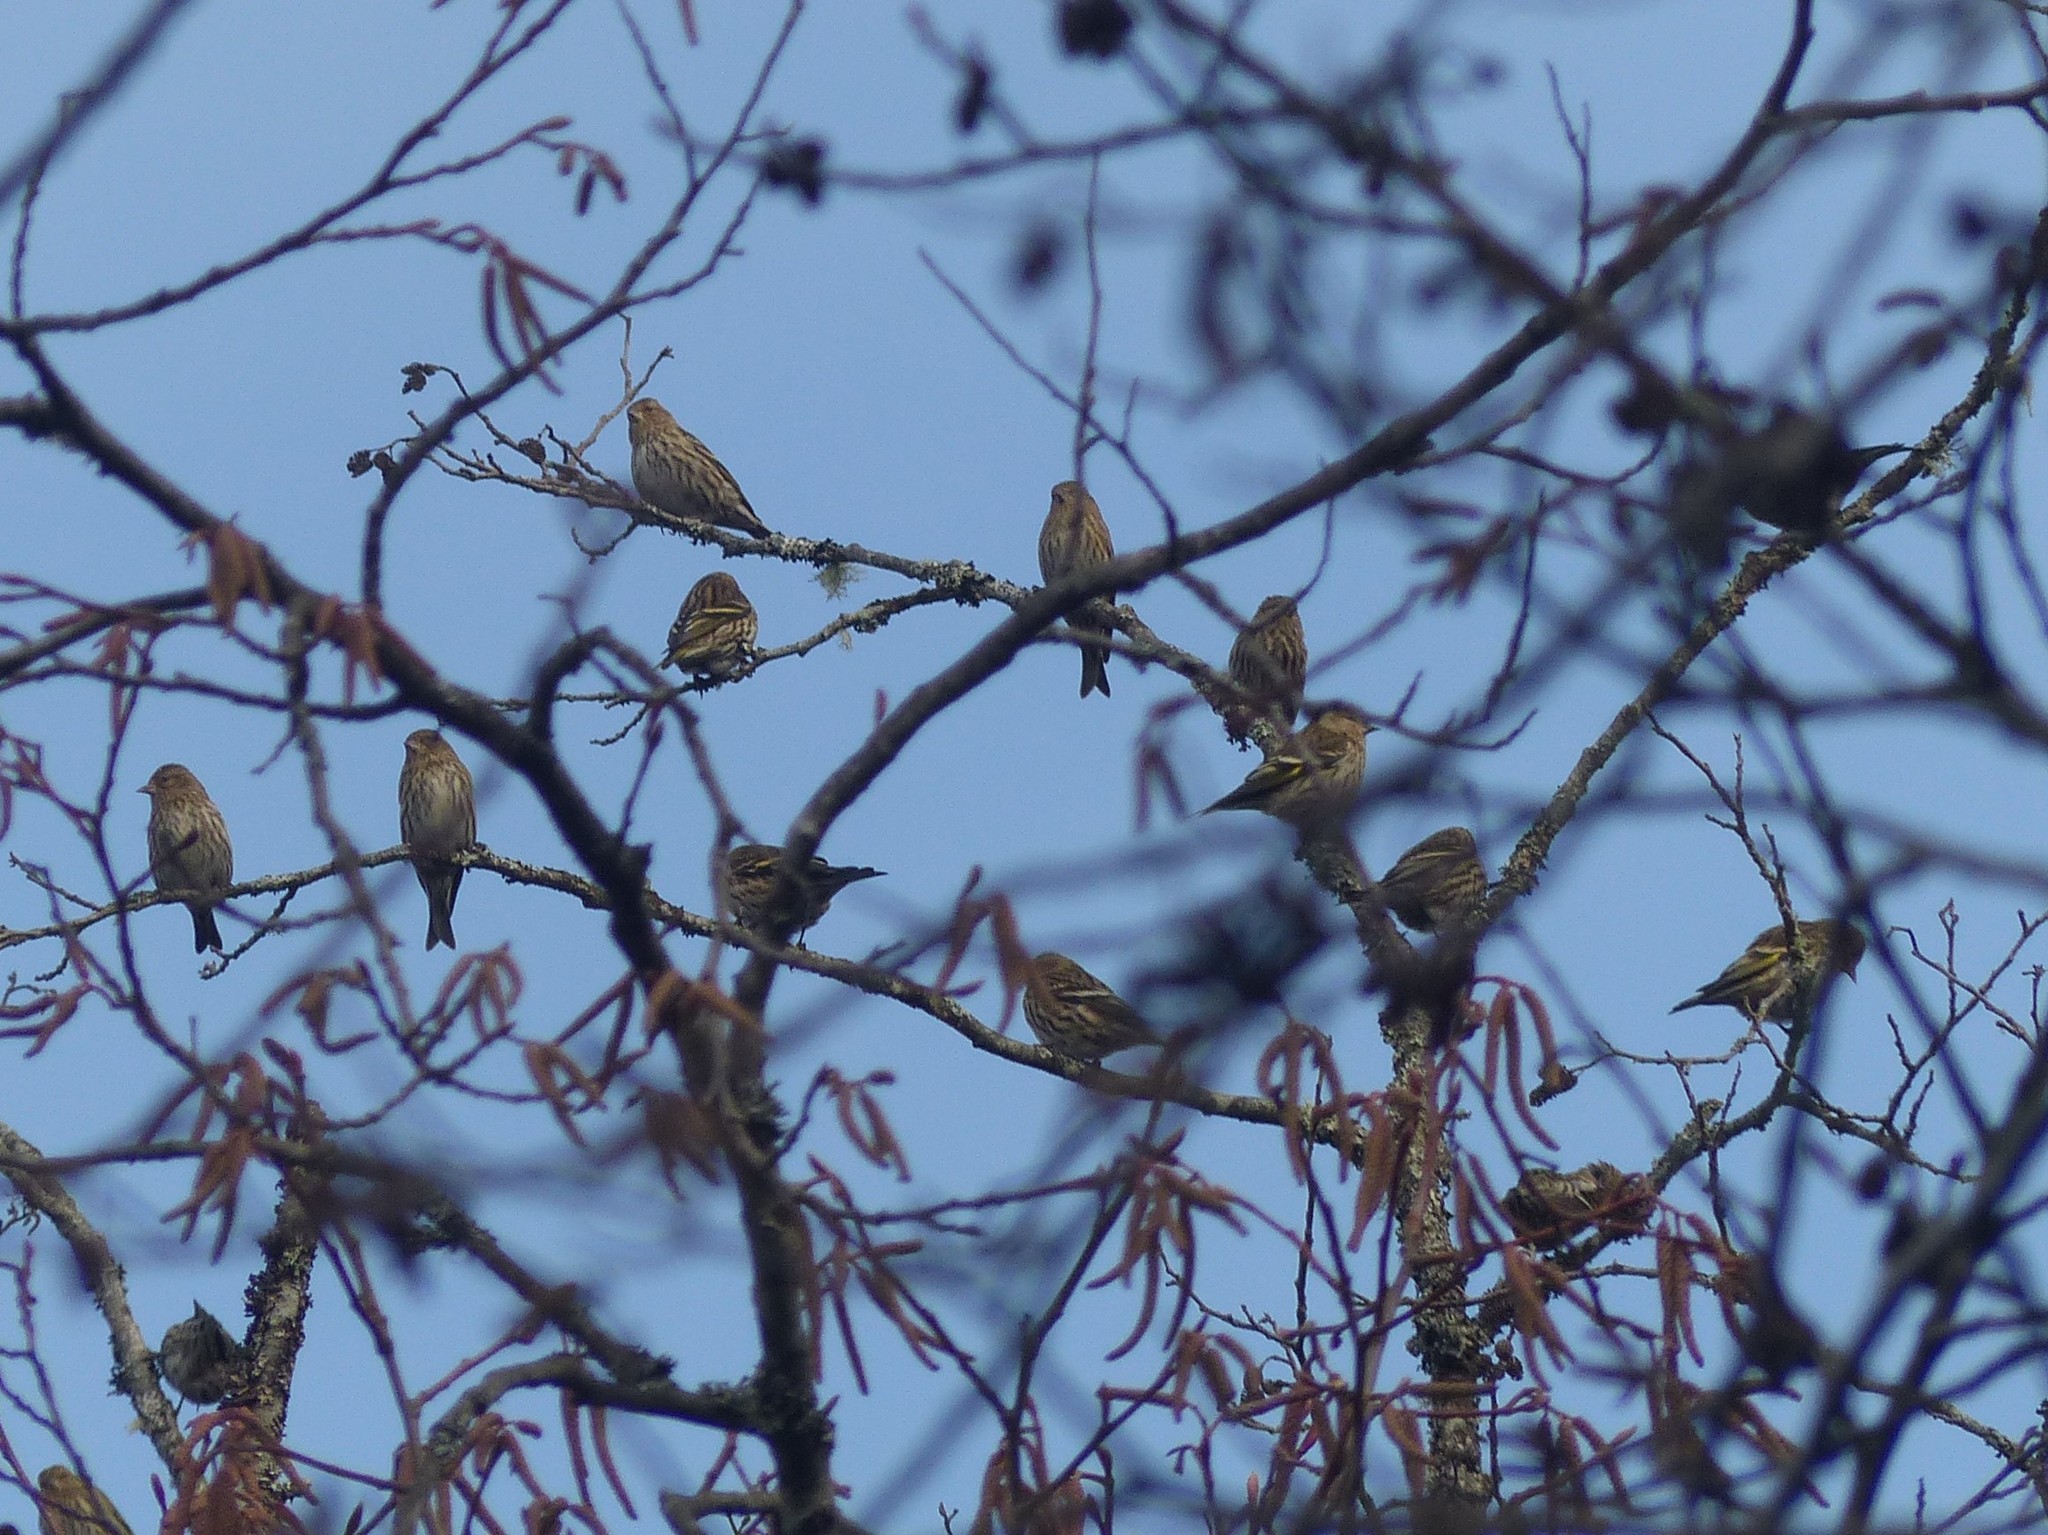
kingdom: Animalia
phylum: Chordata
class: Aves
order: Passeriformes
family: Fringillidae
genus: Spinus
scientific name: Spinus pinus
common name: Pine siskin
